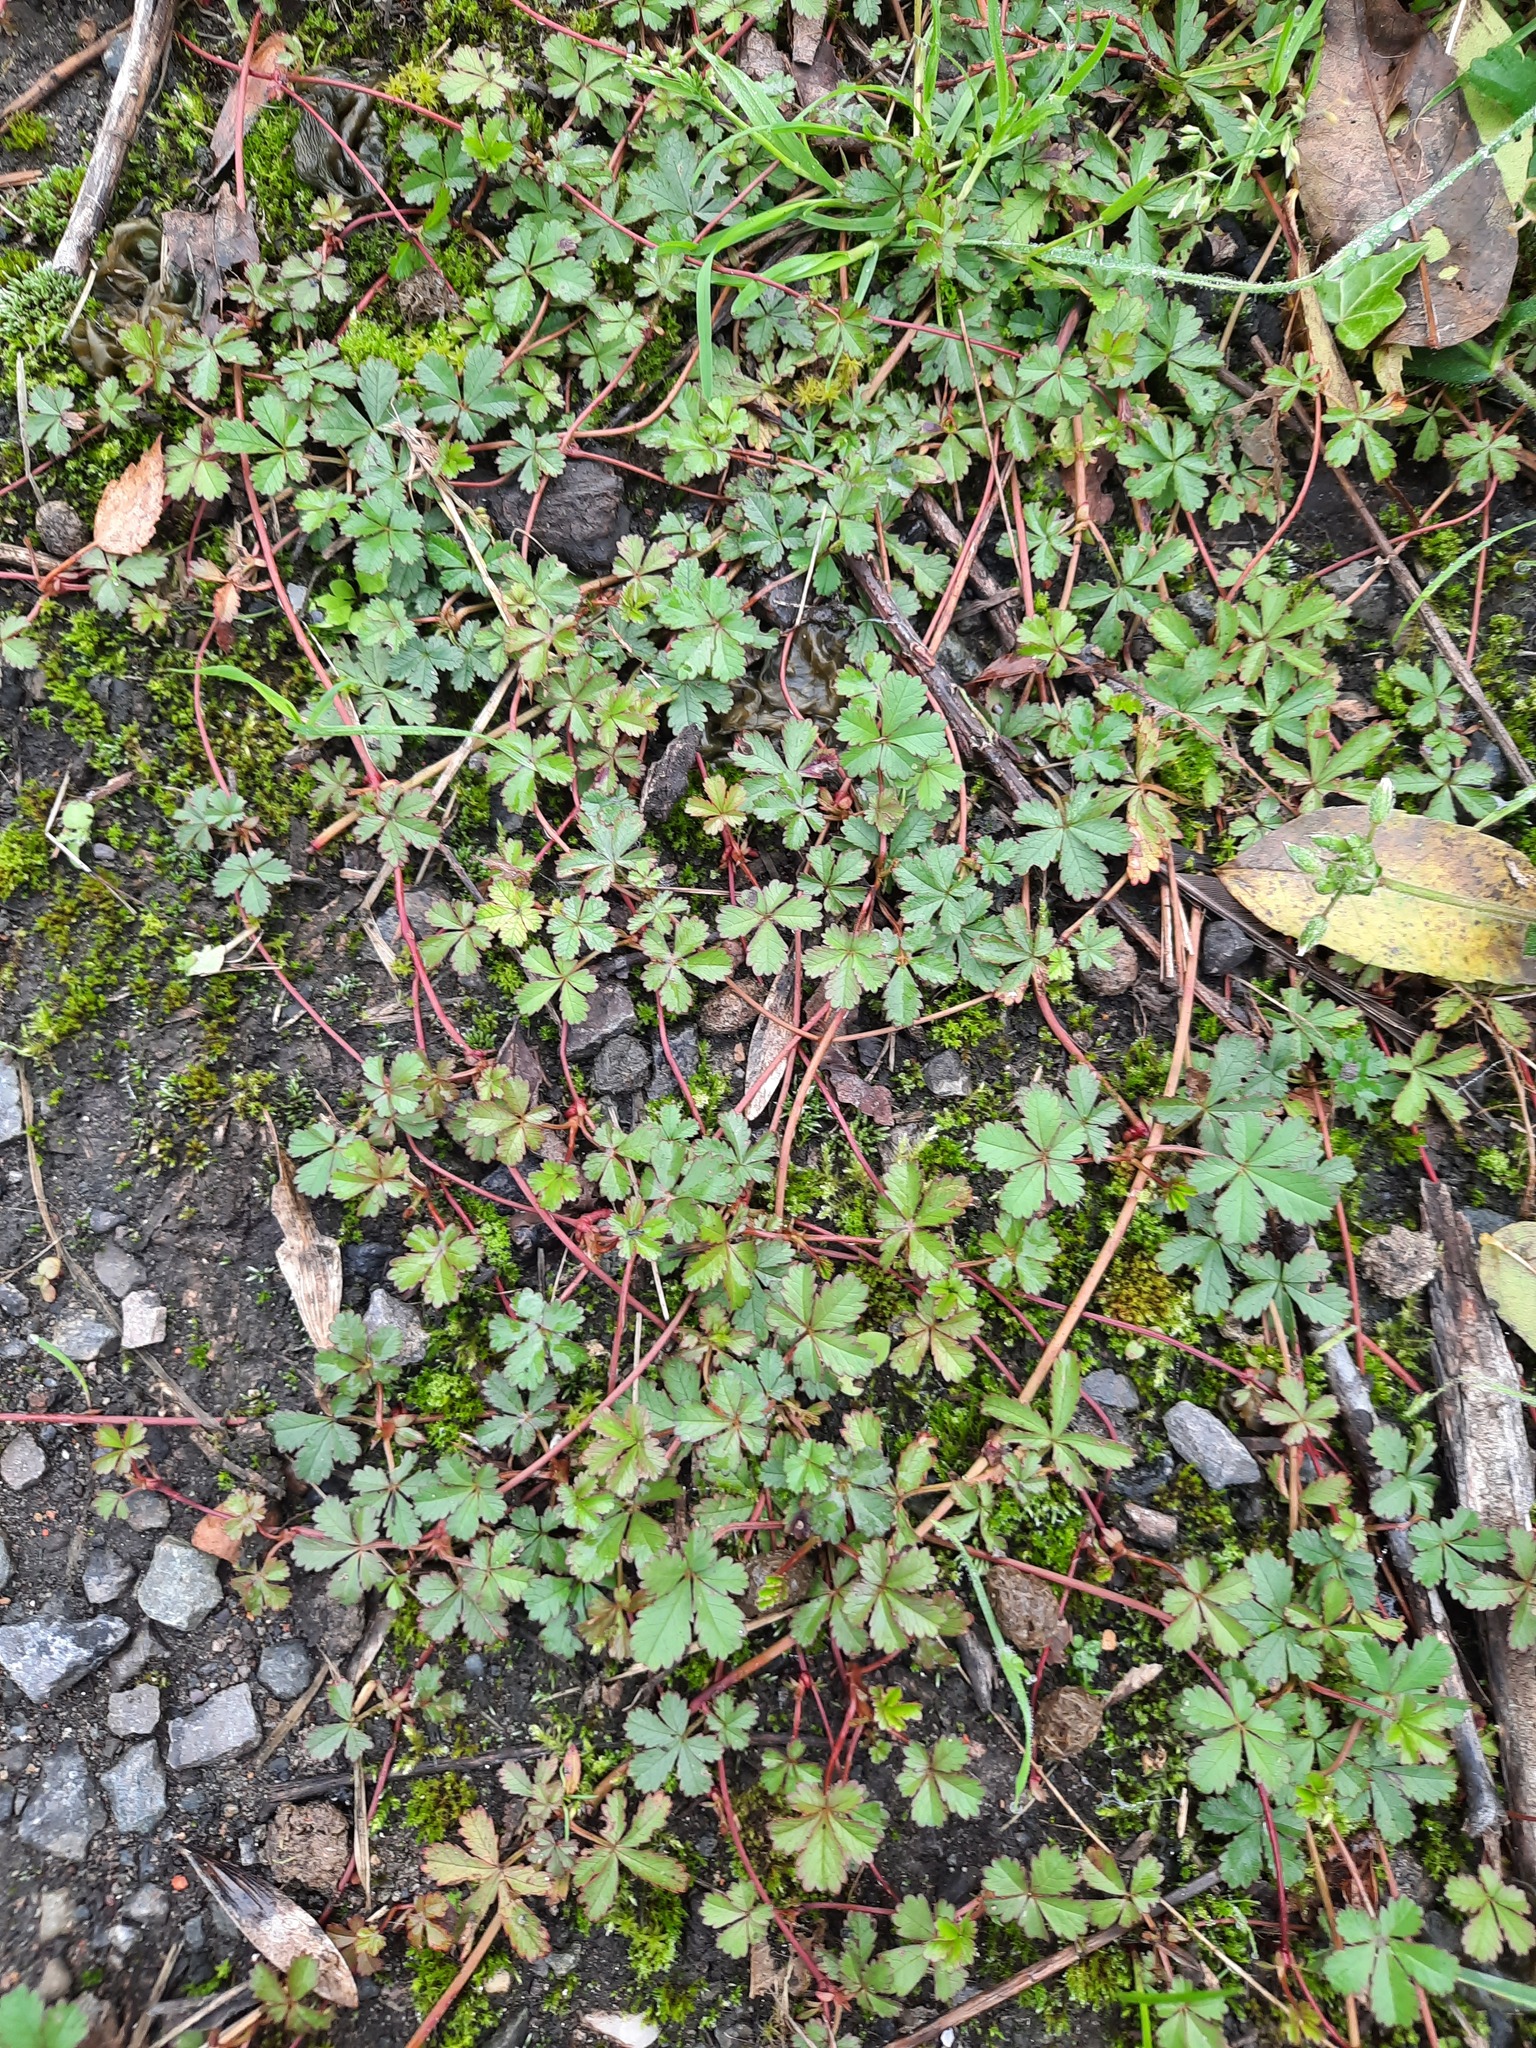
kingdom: Plantae
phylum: Tracheophyta
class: Magnoliopsida
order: Rosales
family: Rosaceae
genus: Potentilla
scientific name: Potentilla reptans
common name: Creeping cinquefoil
